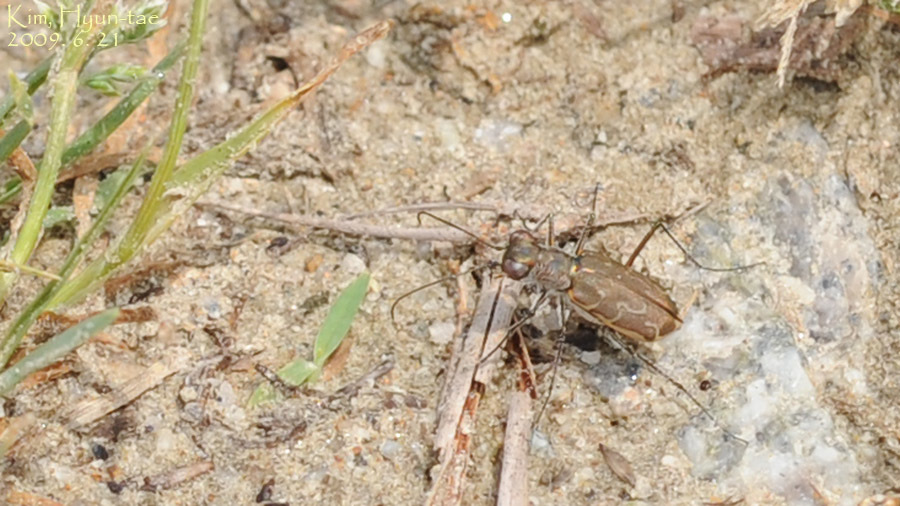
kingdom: Animalia
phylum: Arthropoda
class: Insecta
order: Coleoptera
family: Carabidae
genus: Cylindera
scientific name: Cylindera elisae
